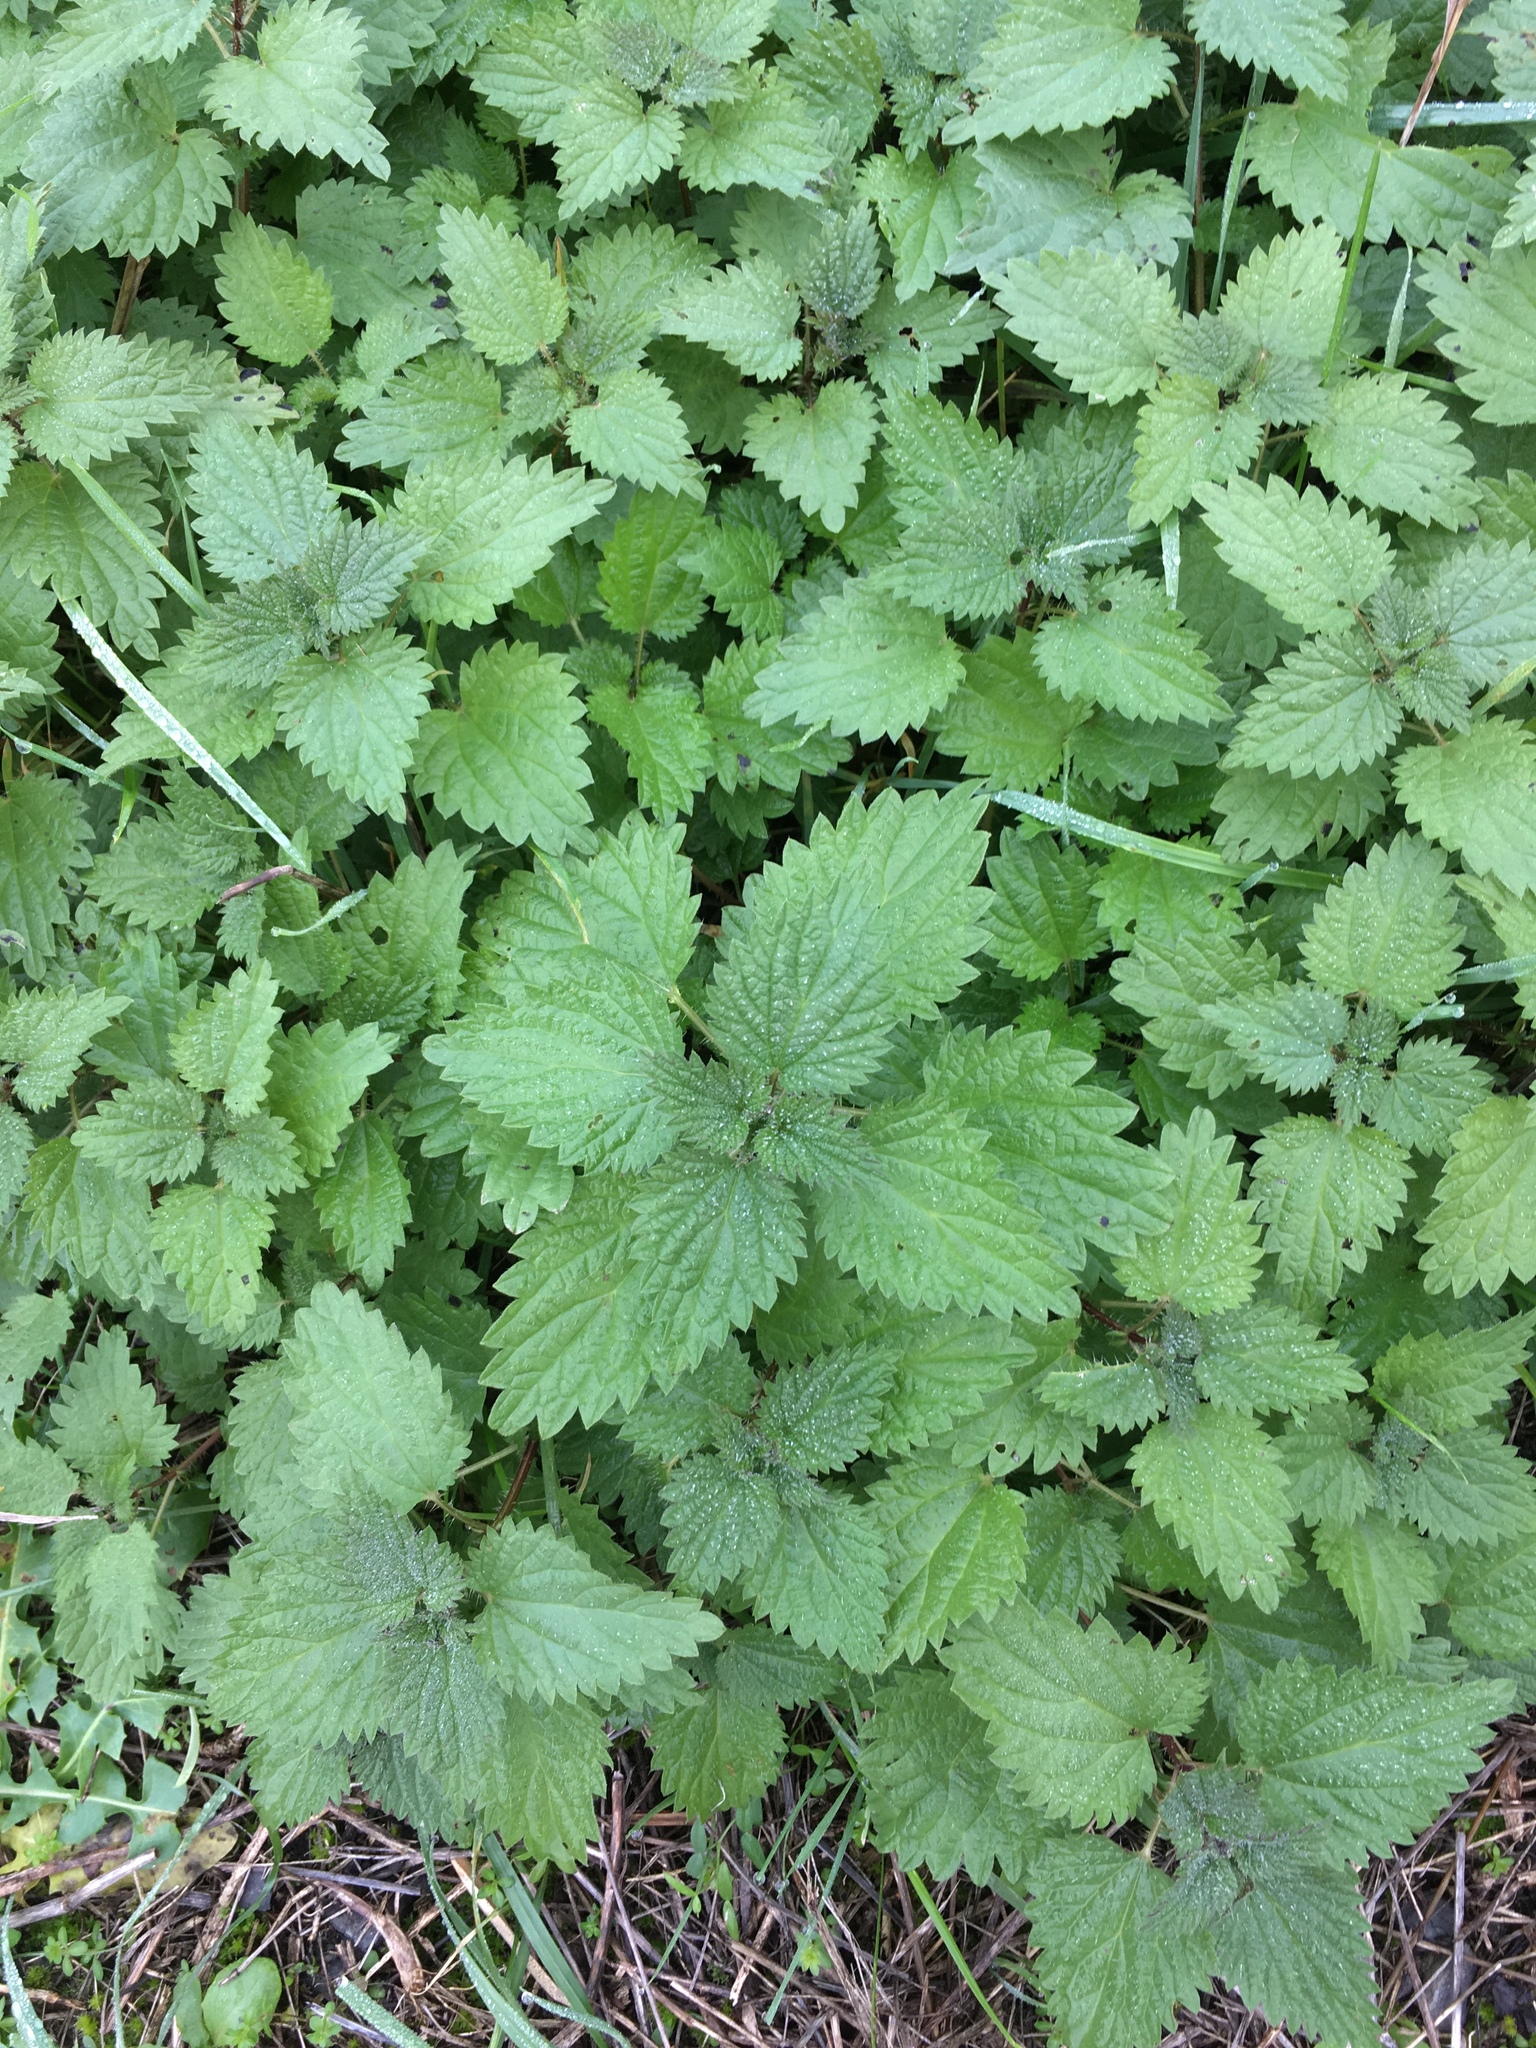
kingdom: Plantae
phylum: Tracheophyta
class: Magnoliopsida
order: Rosales
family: Urticaceae
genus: Urtica
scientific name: Urtica dioica
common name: Common nettle
